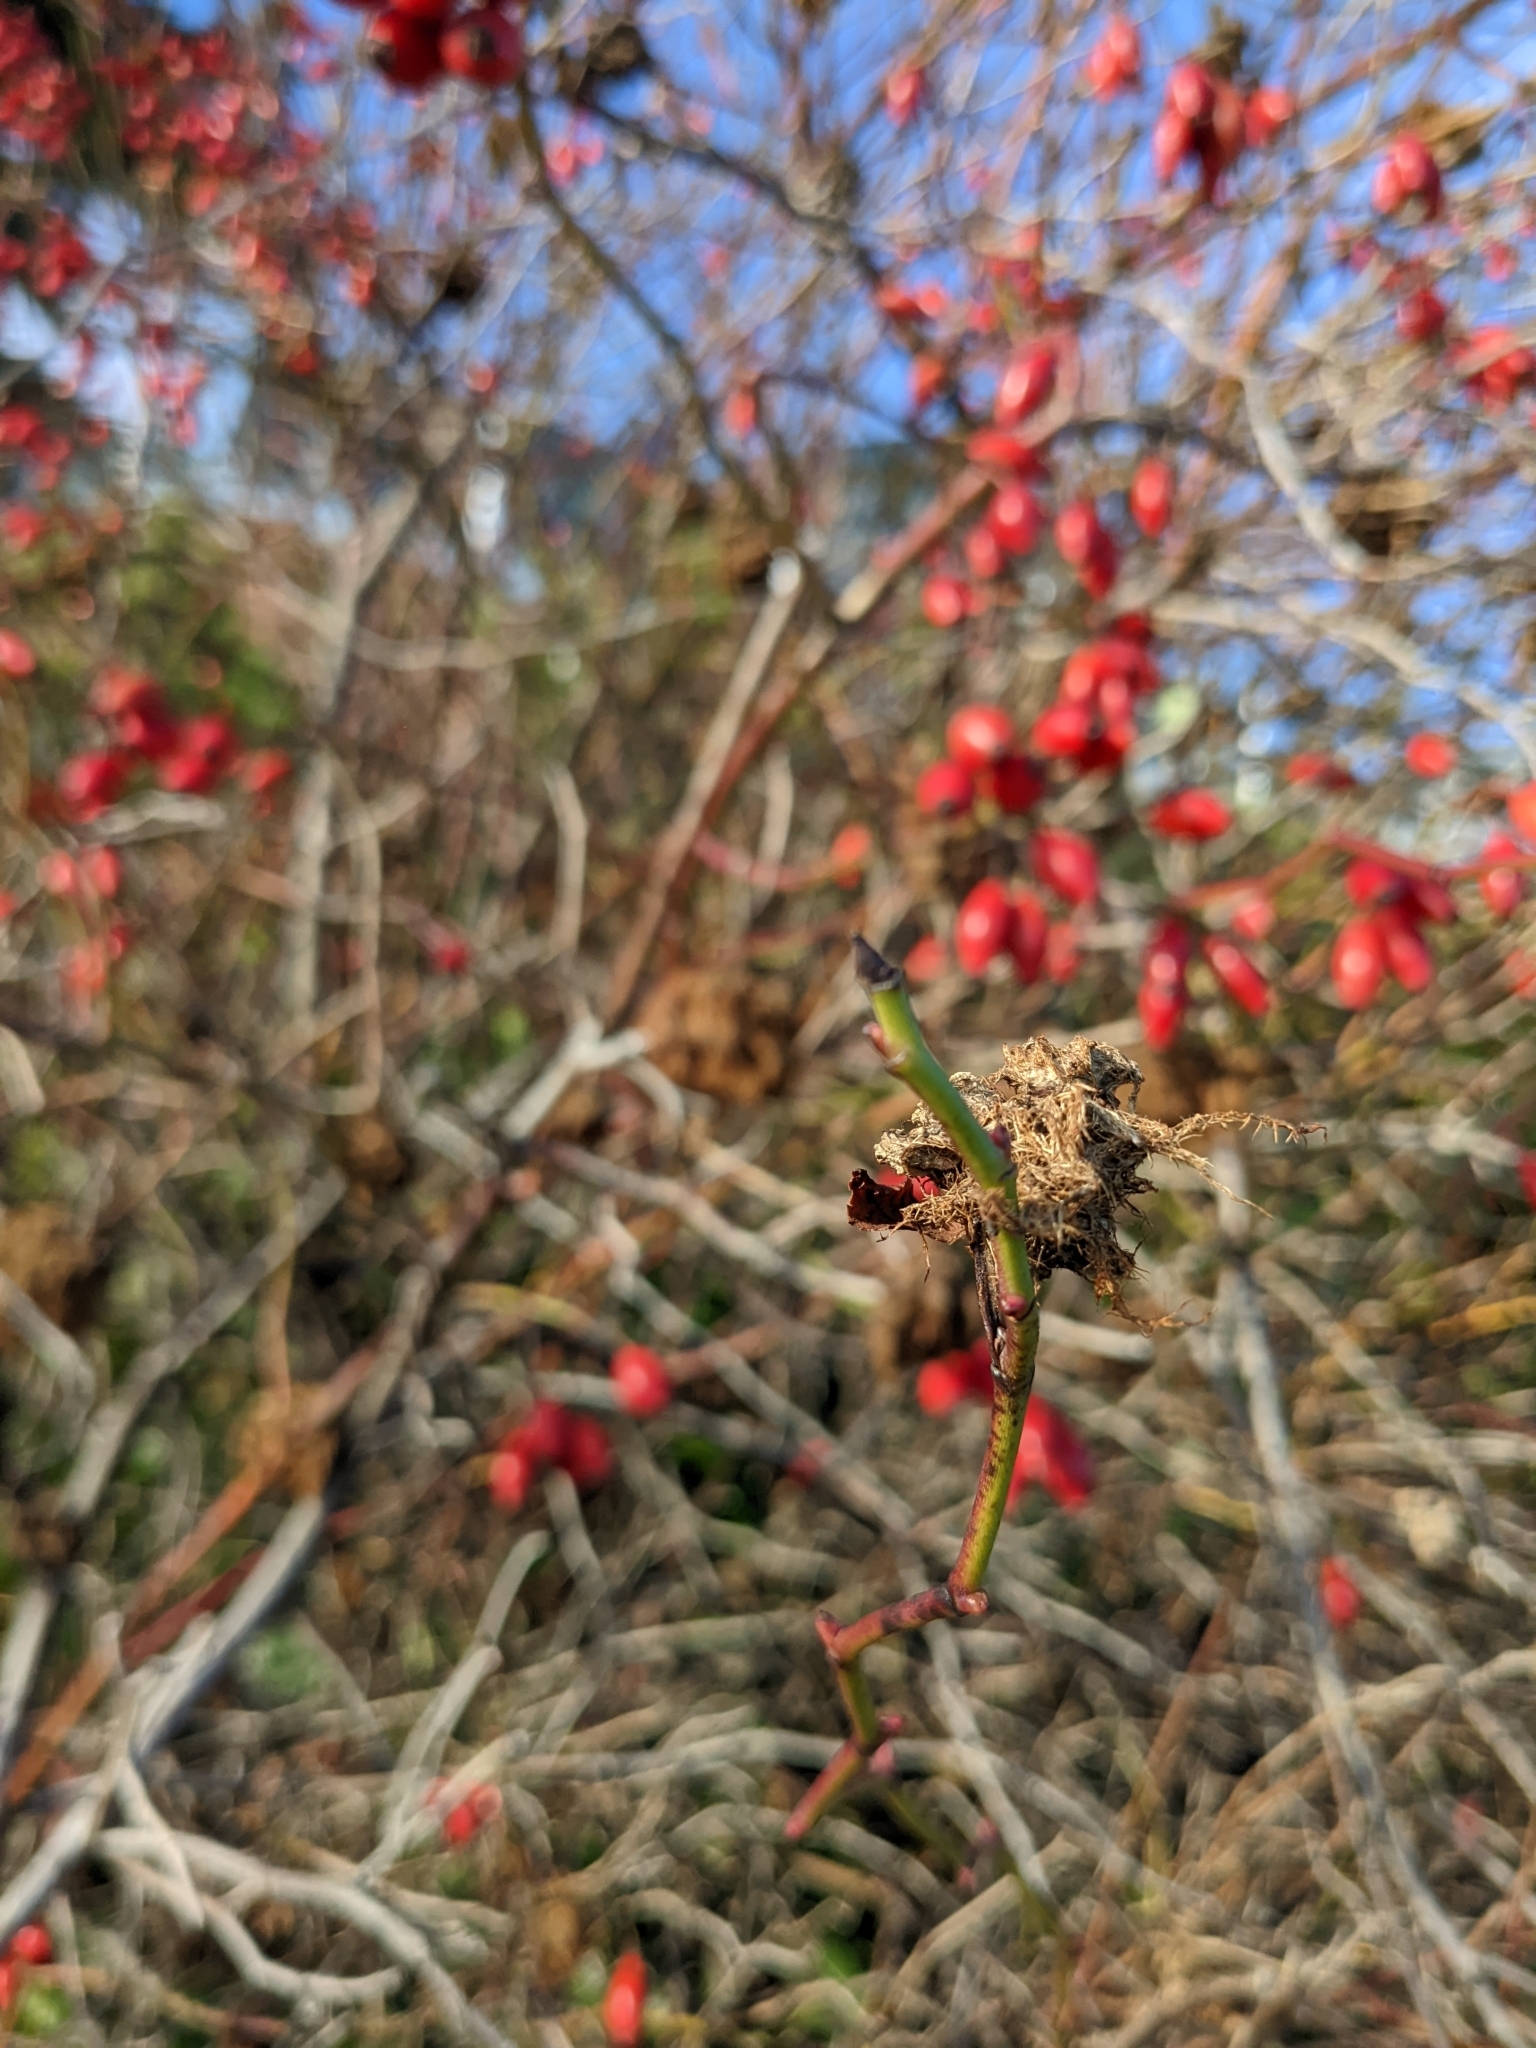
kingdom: Animalia
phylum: Arthropoda
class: Insecta
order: Hymenoptera
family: Cynipidae
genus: Diplolepis
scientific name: Diplolepis rosae
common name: Bedeguar gall
